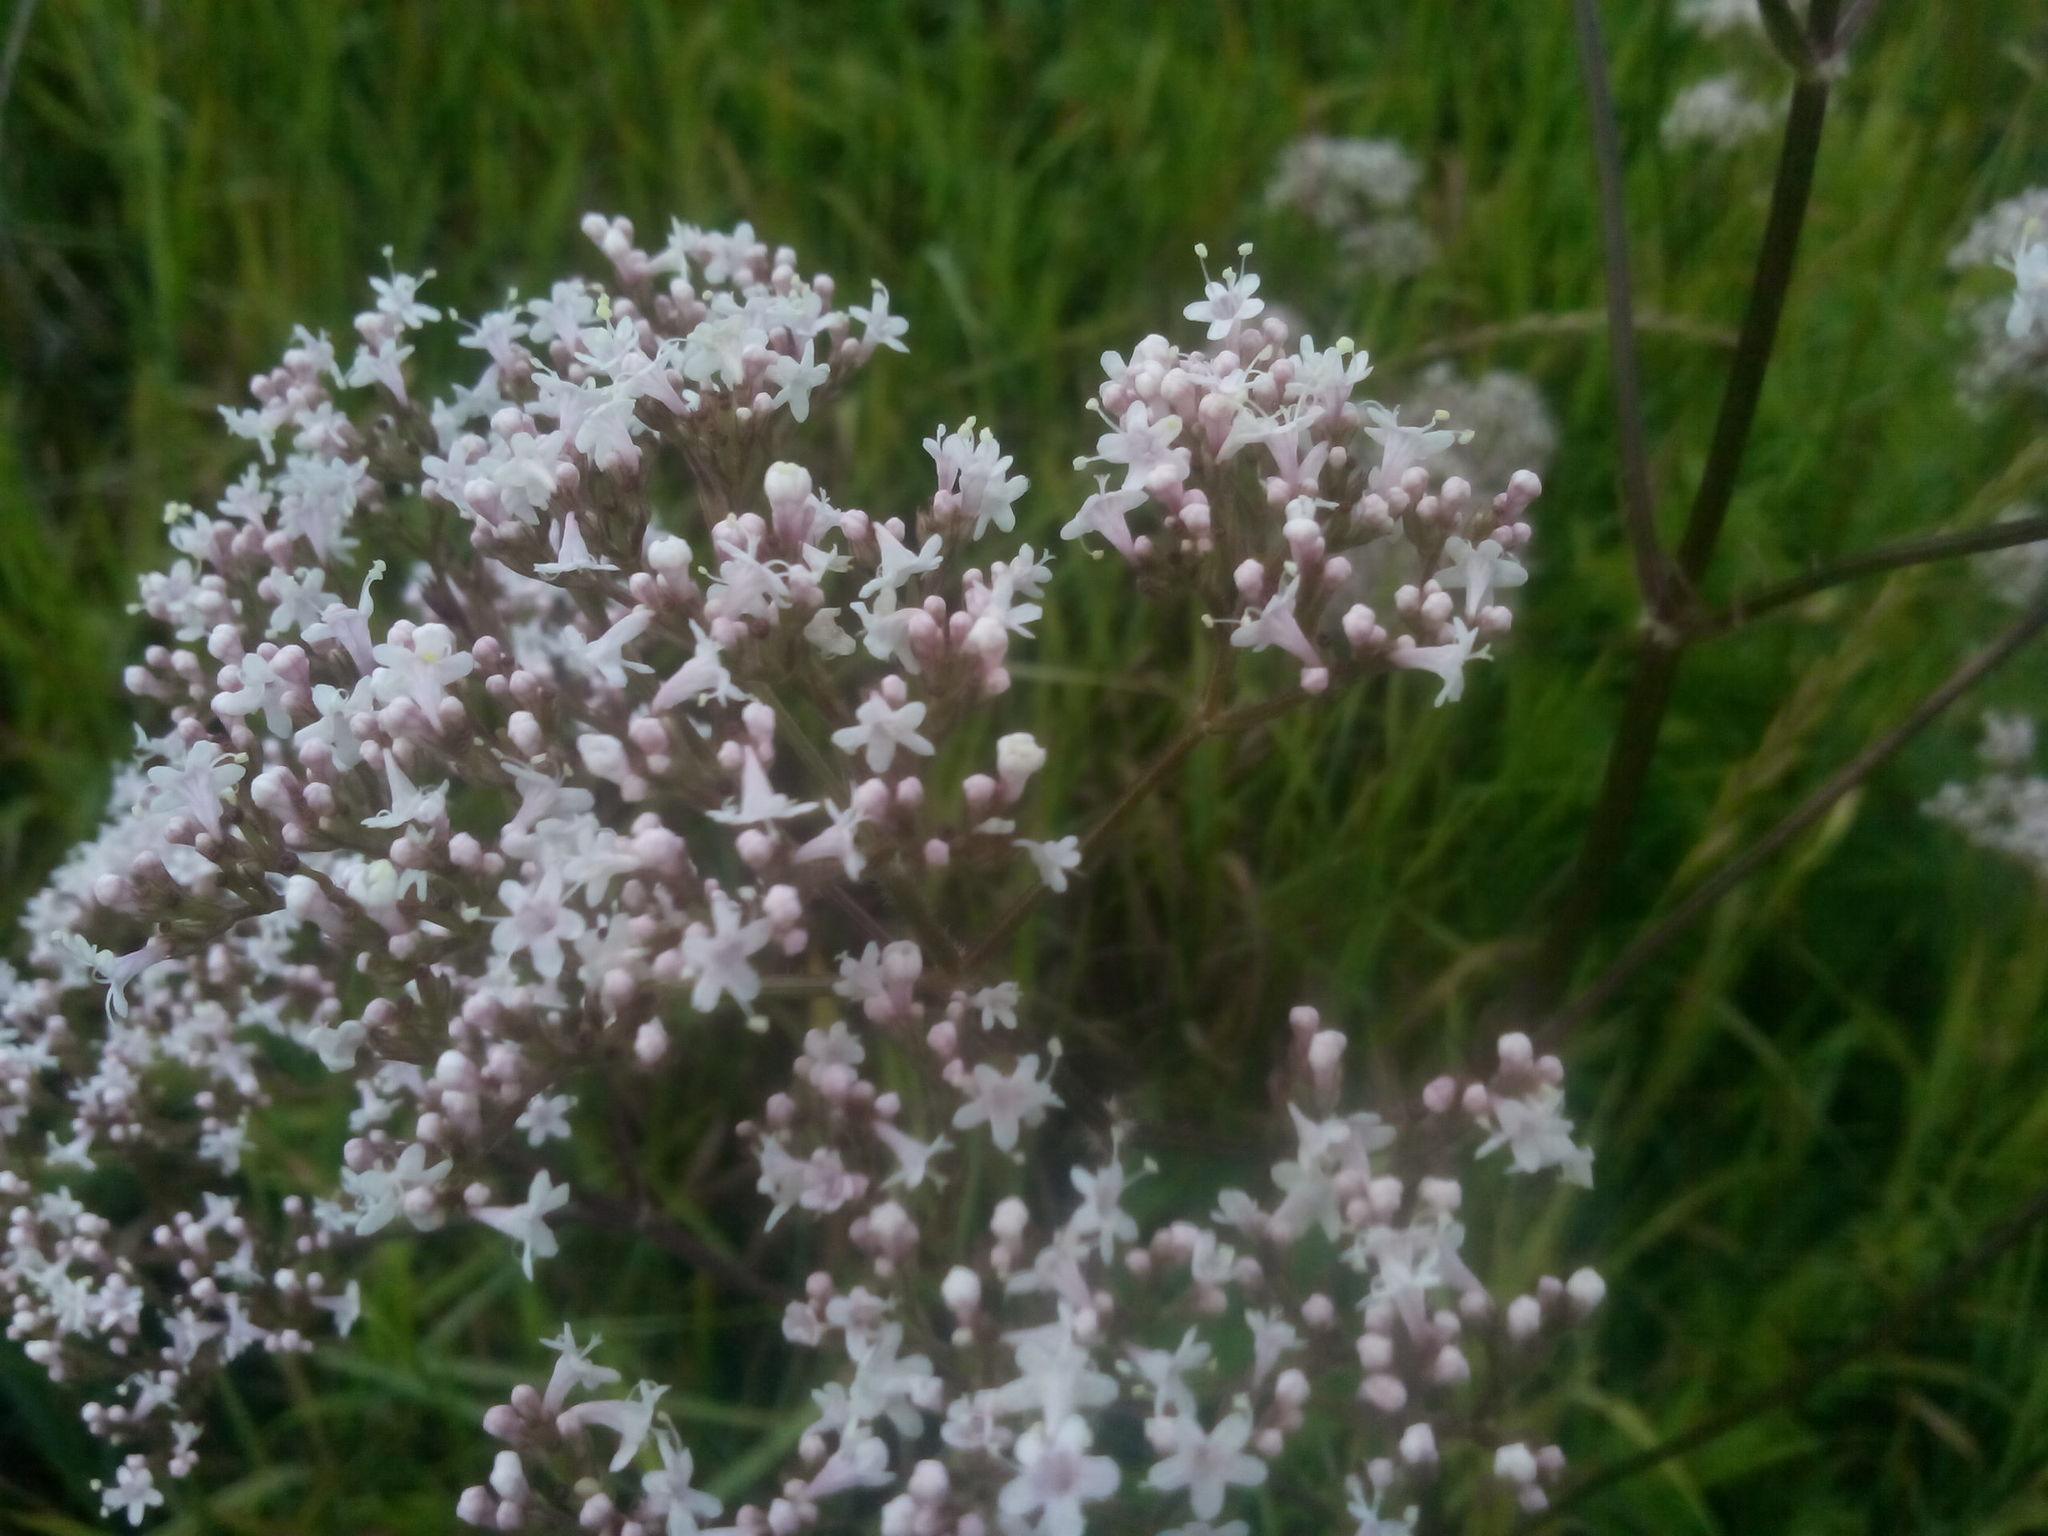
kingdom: Plantae
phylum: Tracheophyta
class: Magnoliopsida
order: Dipsacales
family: Caprifoliaceae
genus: Valeriana
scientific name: Valeriana officinalis
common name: Common valerian
